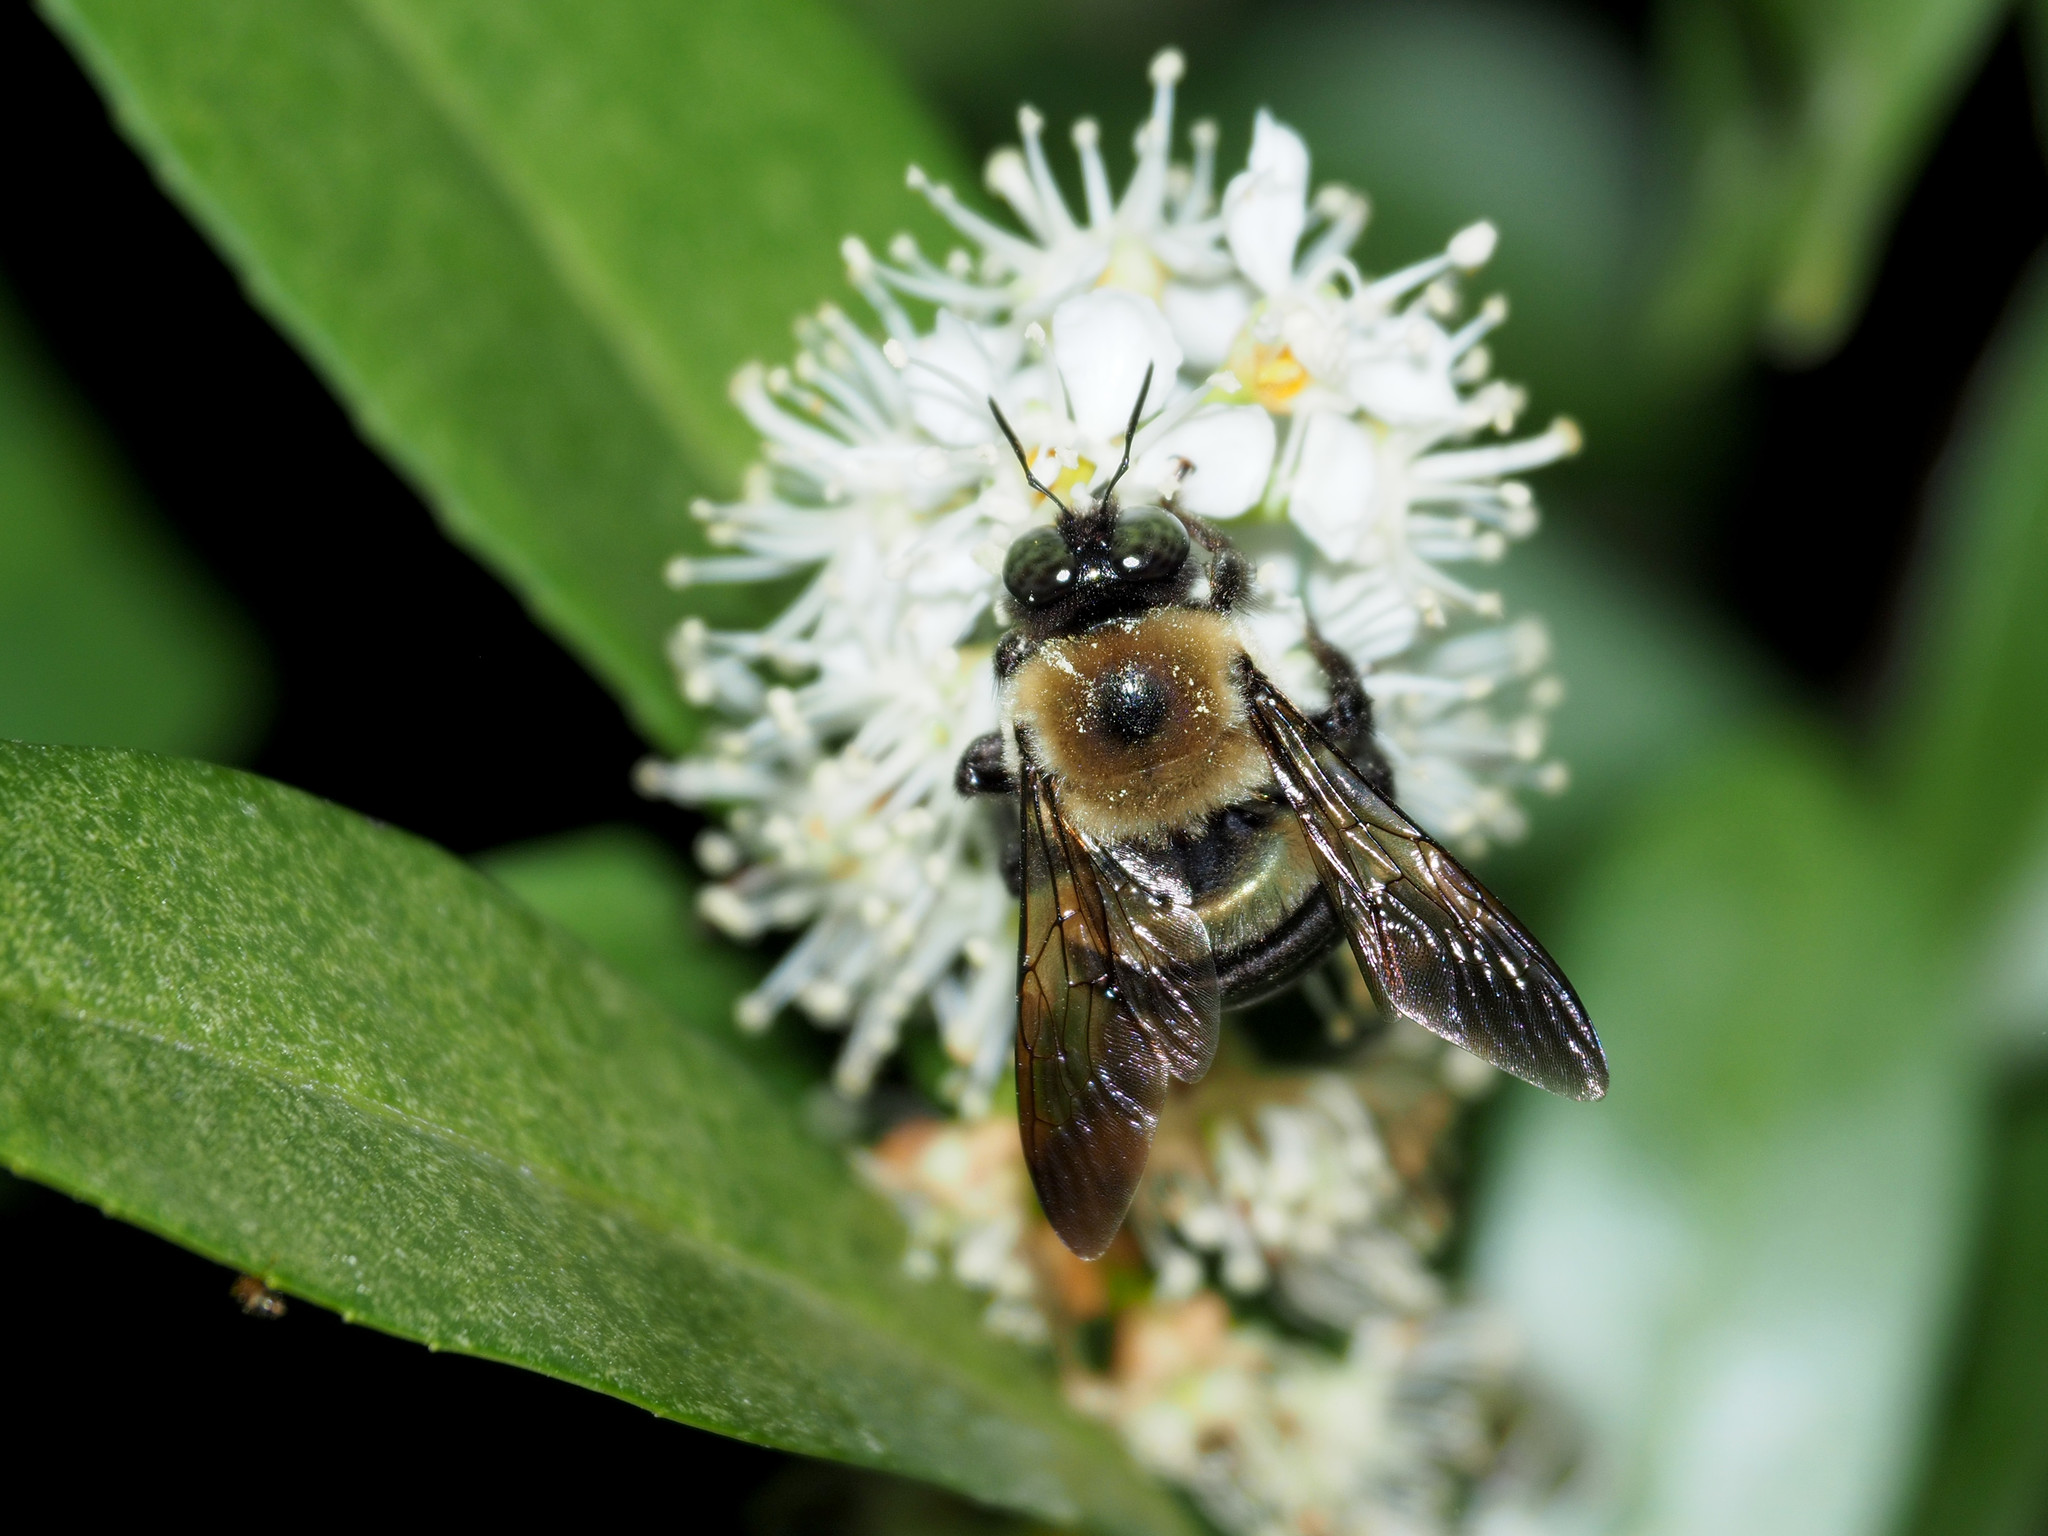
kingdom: Animalia
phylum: Arthropoda
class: Insecta
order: Hymenoptera
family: Apidae
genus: Xylocopa
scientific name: Xylocopa virginica
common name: Carpenter bee
